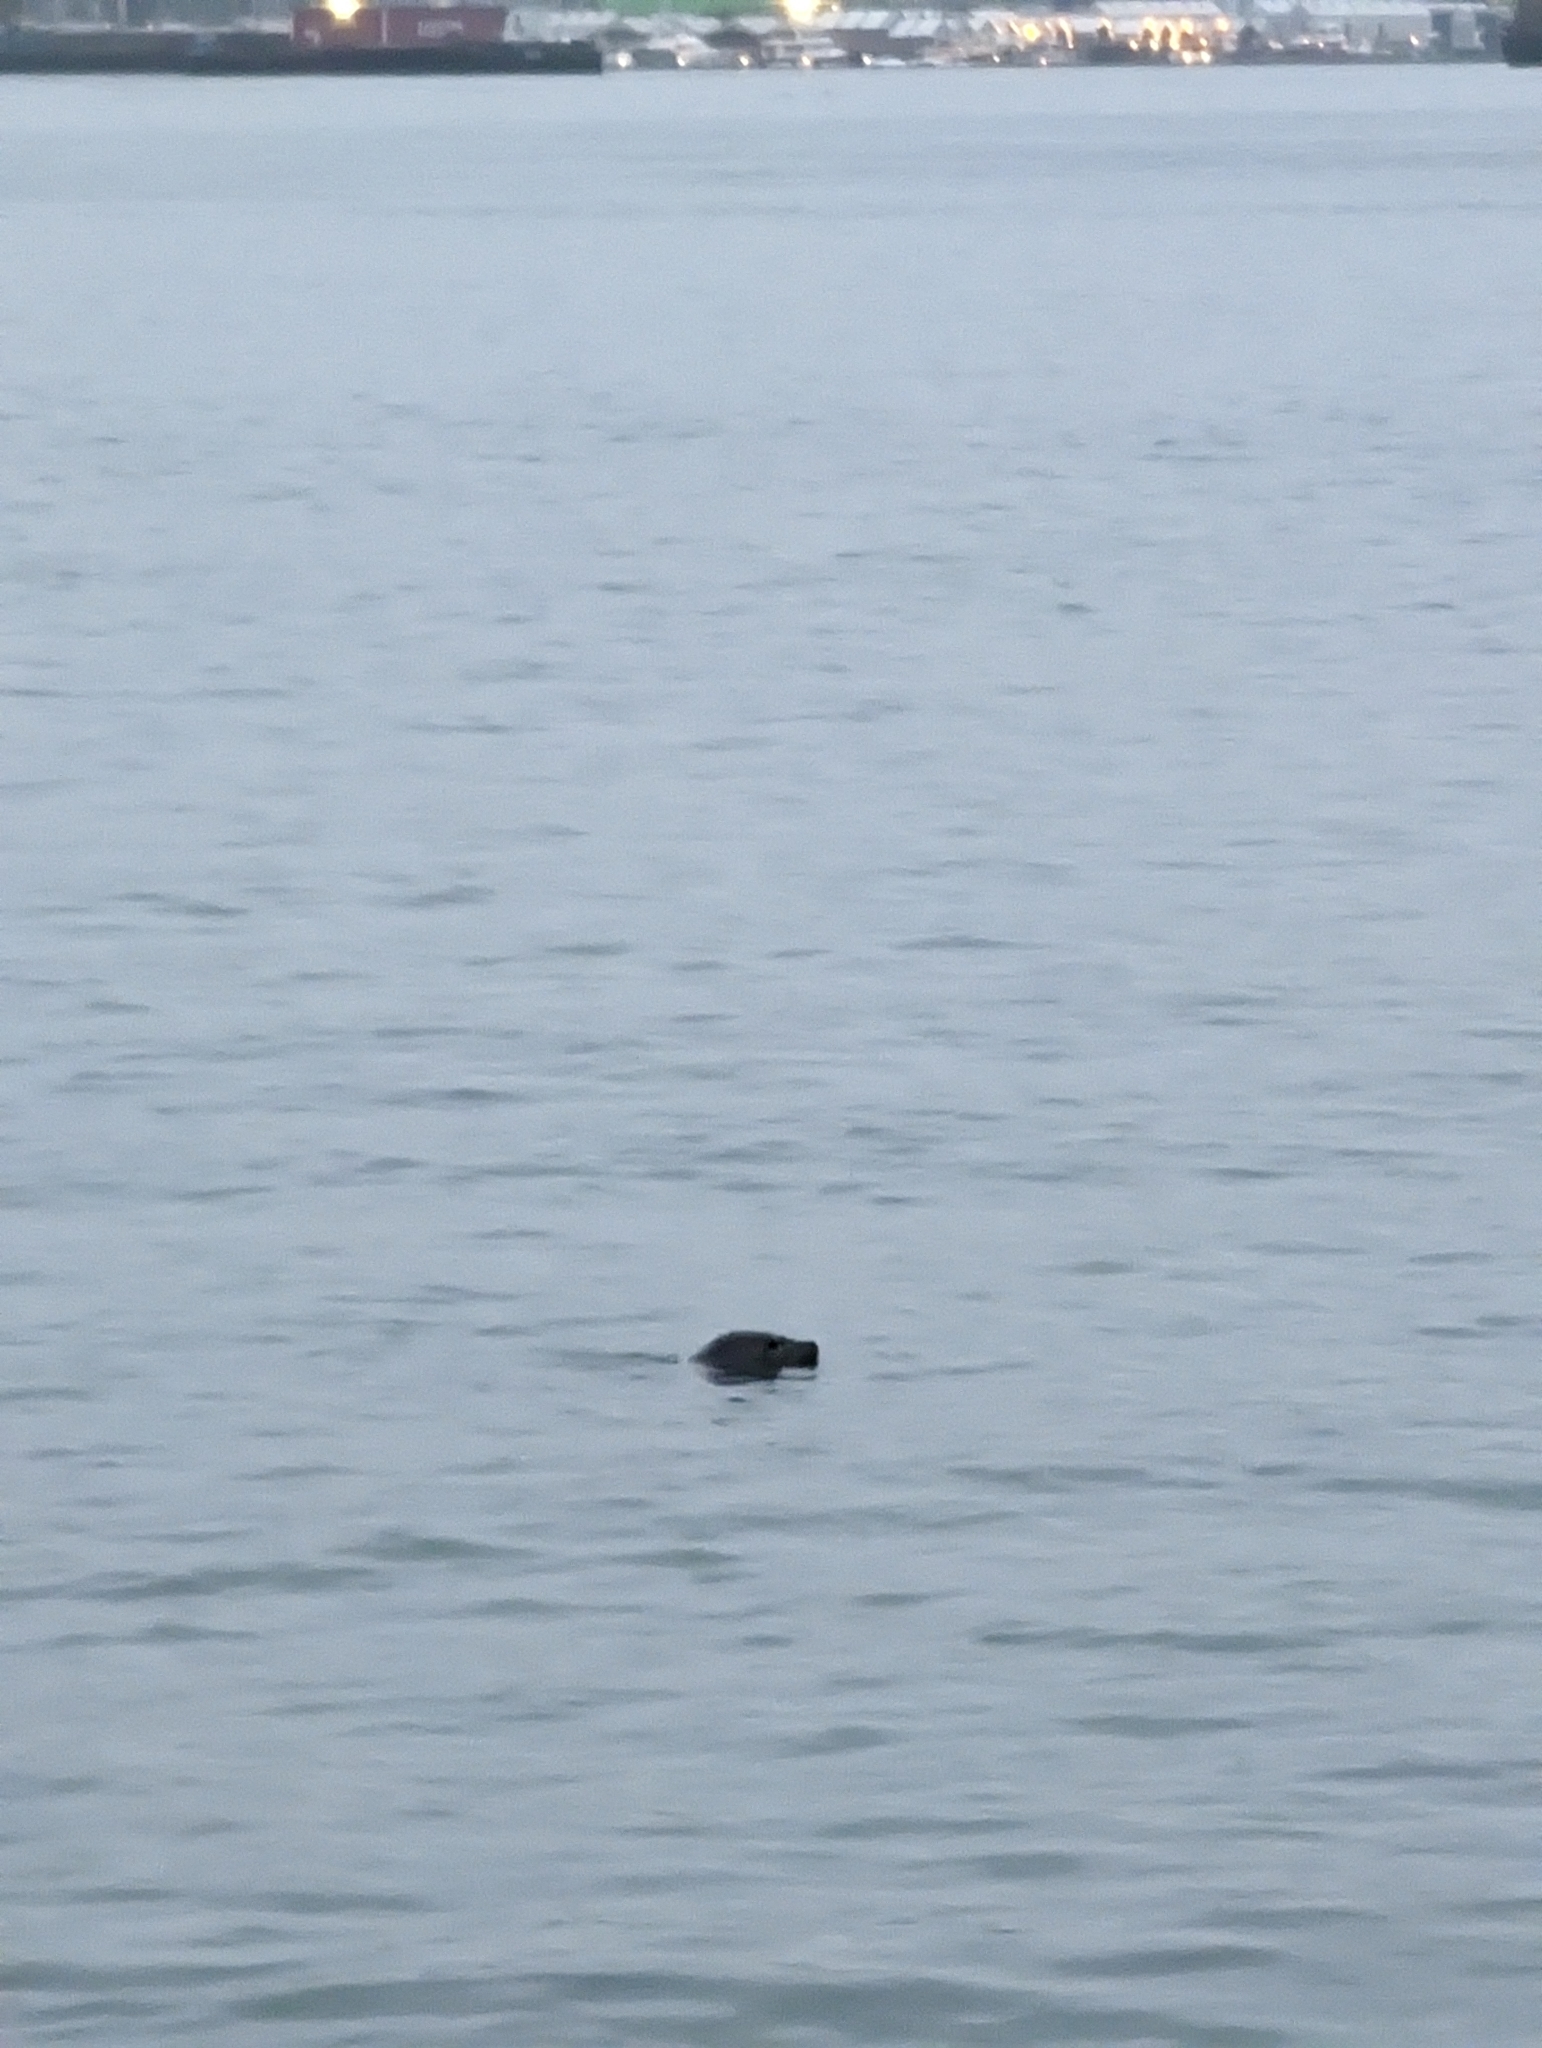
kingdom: Animalia
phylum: Chordata
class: Mammalia
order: Carnivora
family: Phocidae
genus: Phoca
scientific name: Phoca vitulina
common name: Harbor seal
